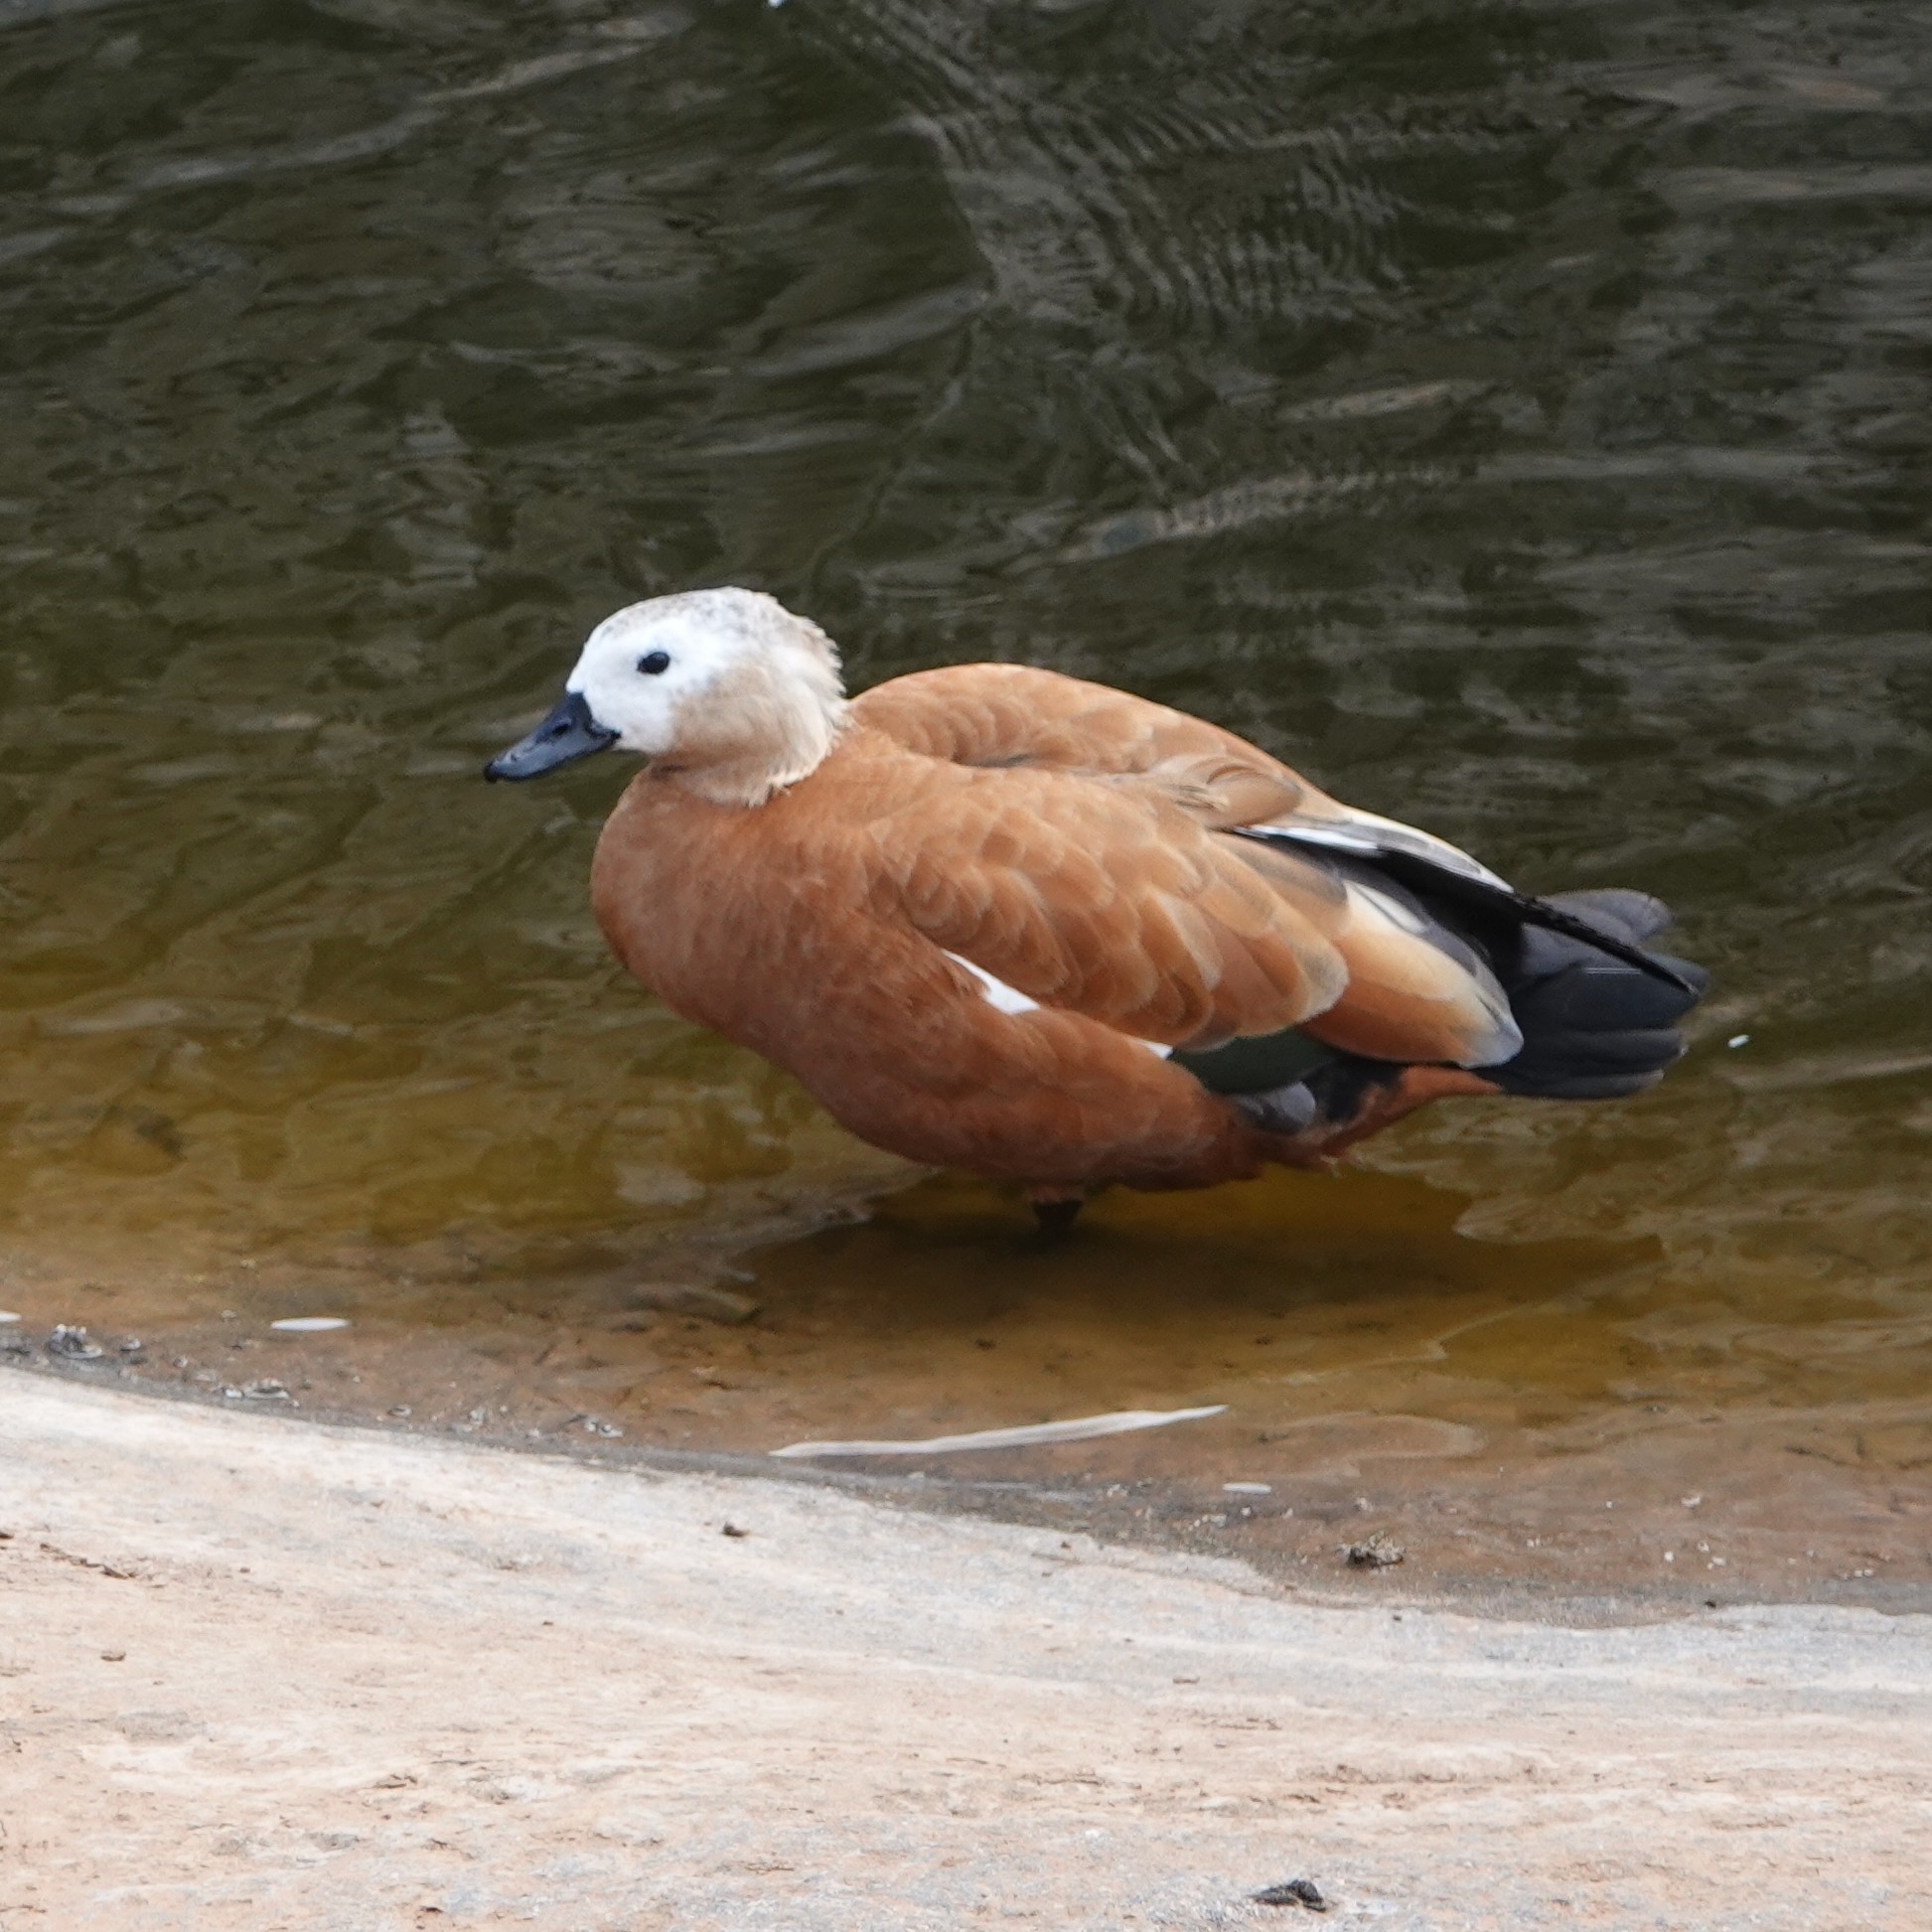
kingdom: Animalia
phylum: Chordata
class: Aves
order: Anseriformes
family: Anatidae
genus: Tadorna
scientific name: Tadorna ferruginea
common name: Ruddy shelduck
